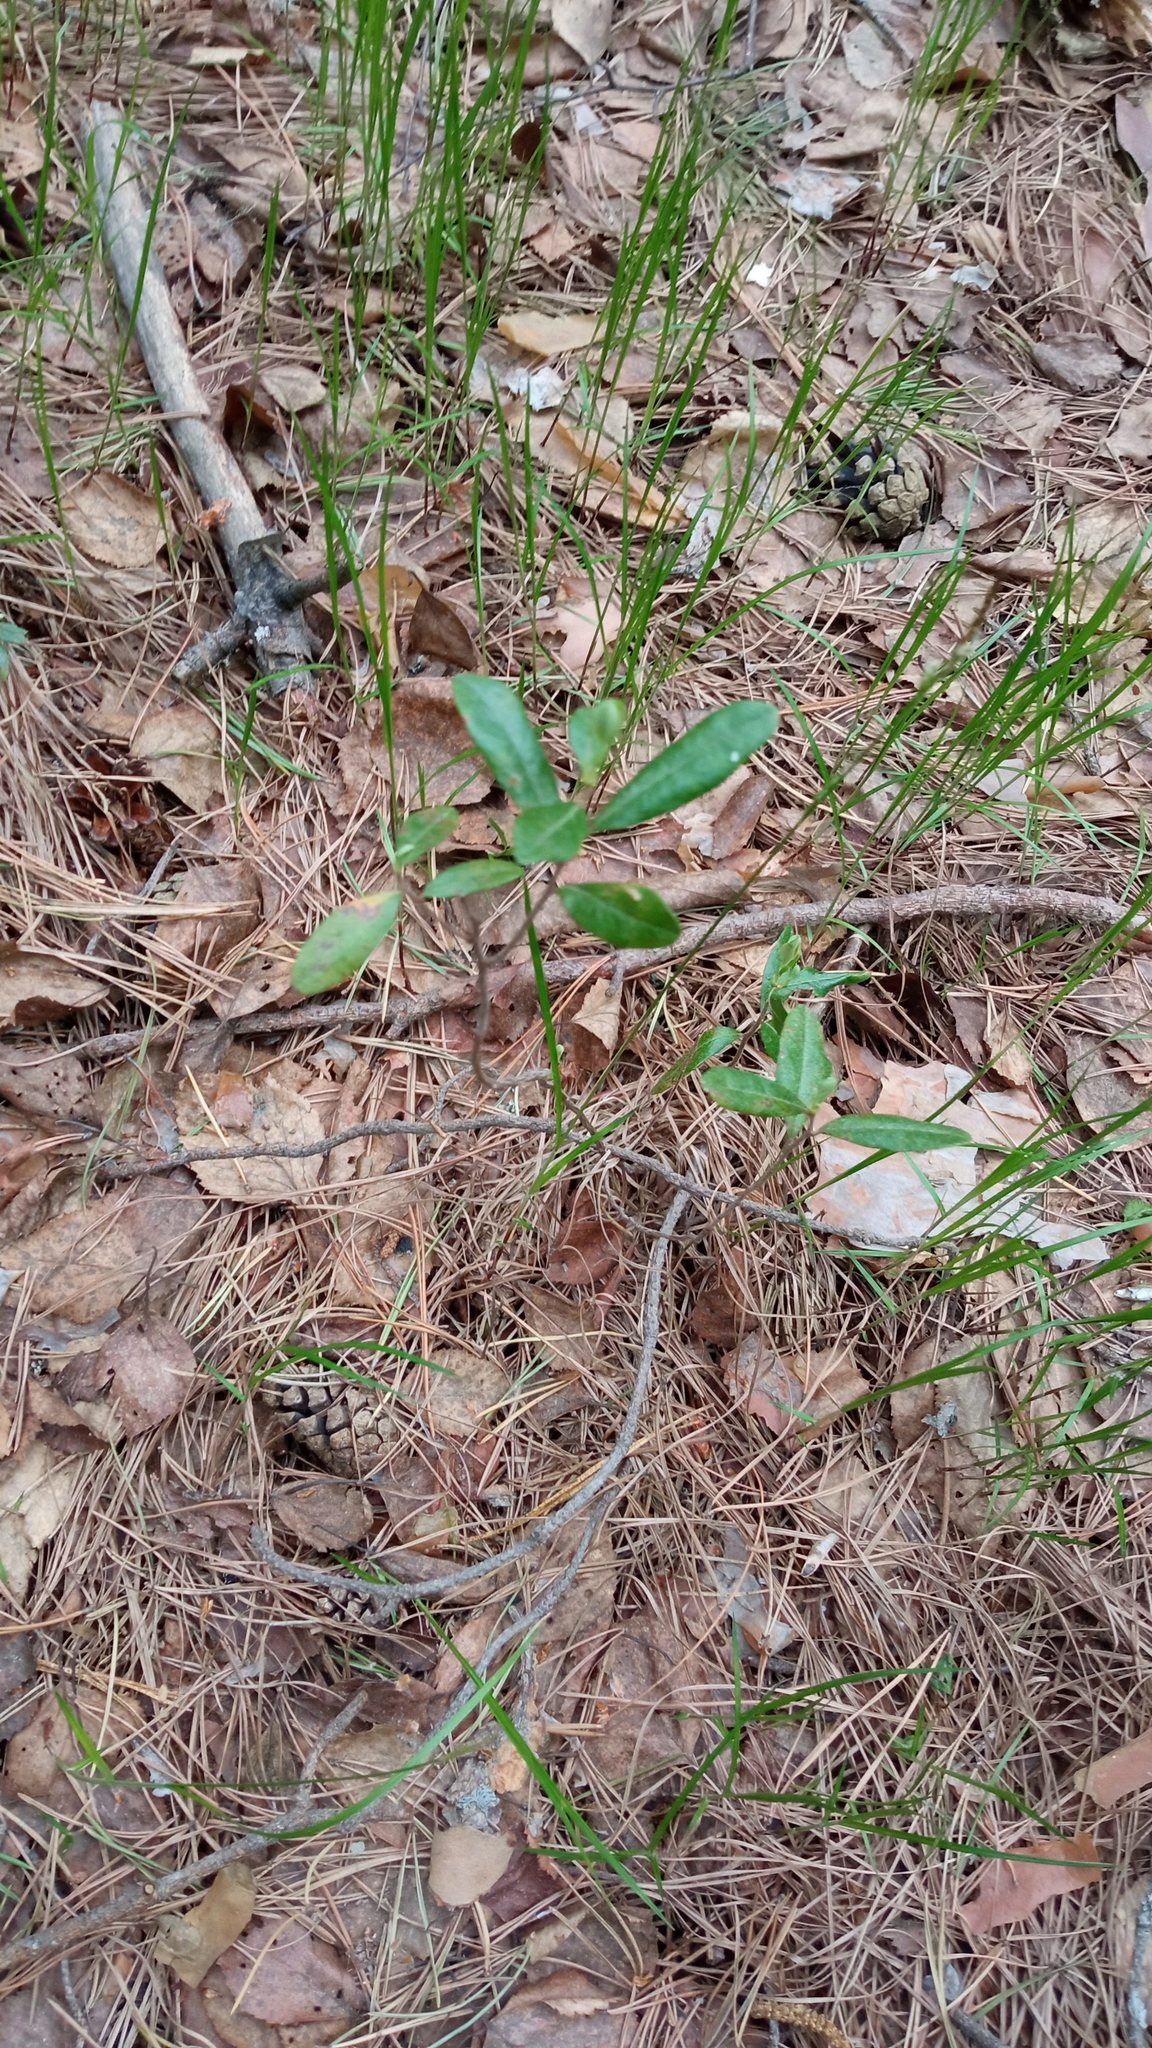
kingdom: Plantae
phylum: Tracheophyta
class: Magnoliopsida
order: Ericales
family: Ericaceae
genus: Chamaedaphne
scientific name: Chamaedaphne calyculata
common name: Leatherleaf
